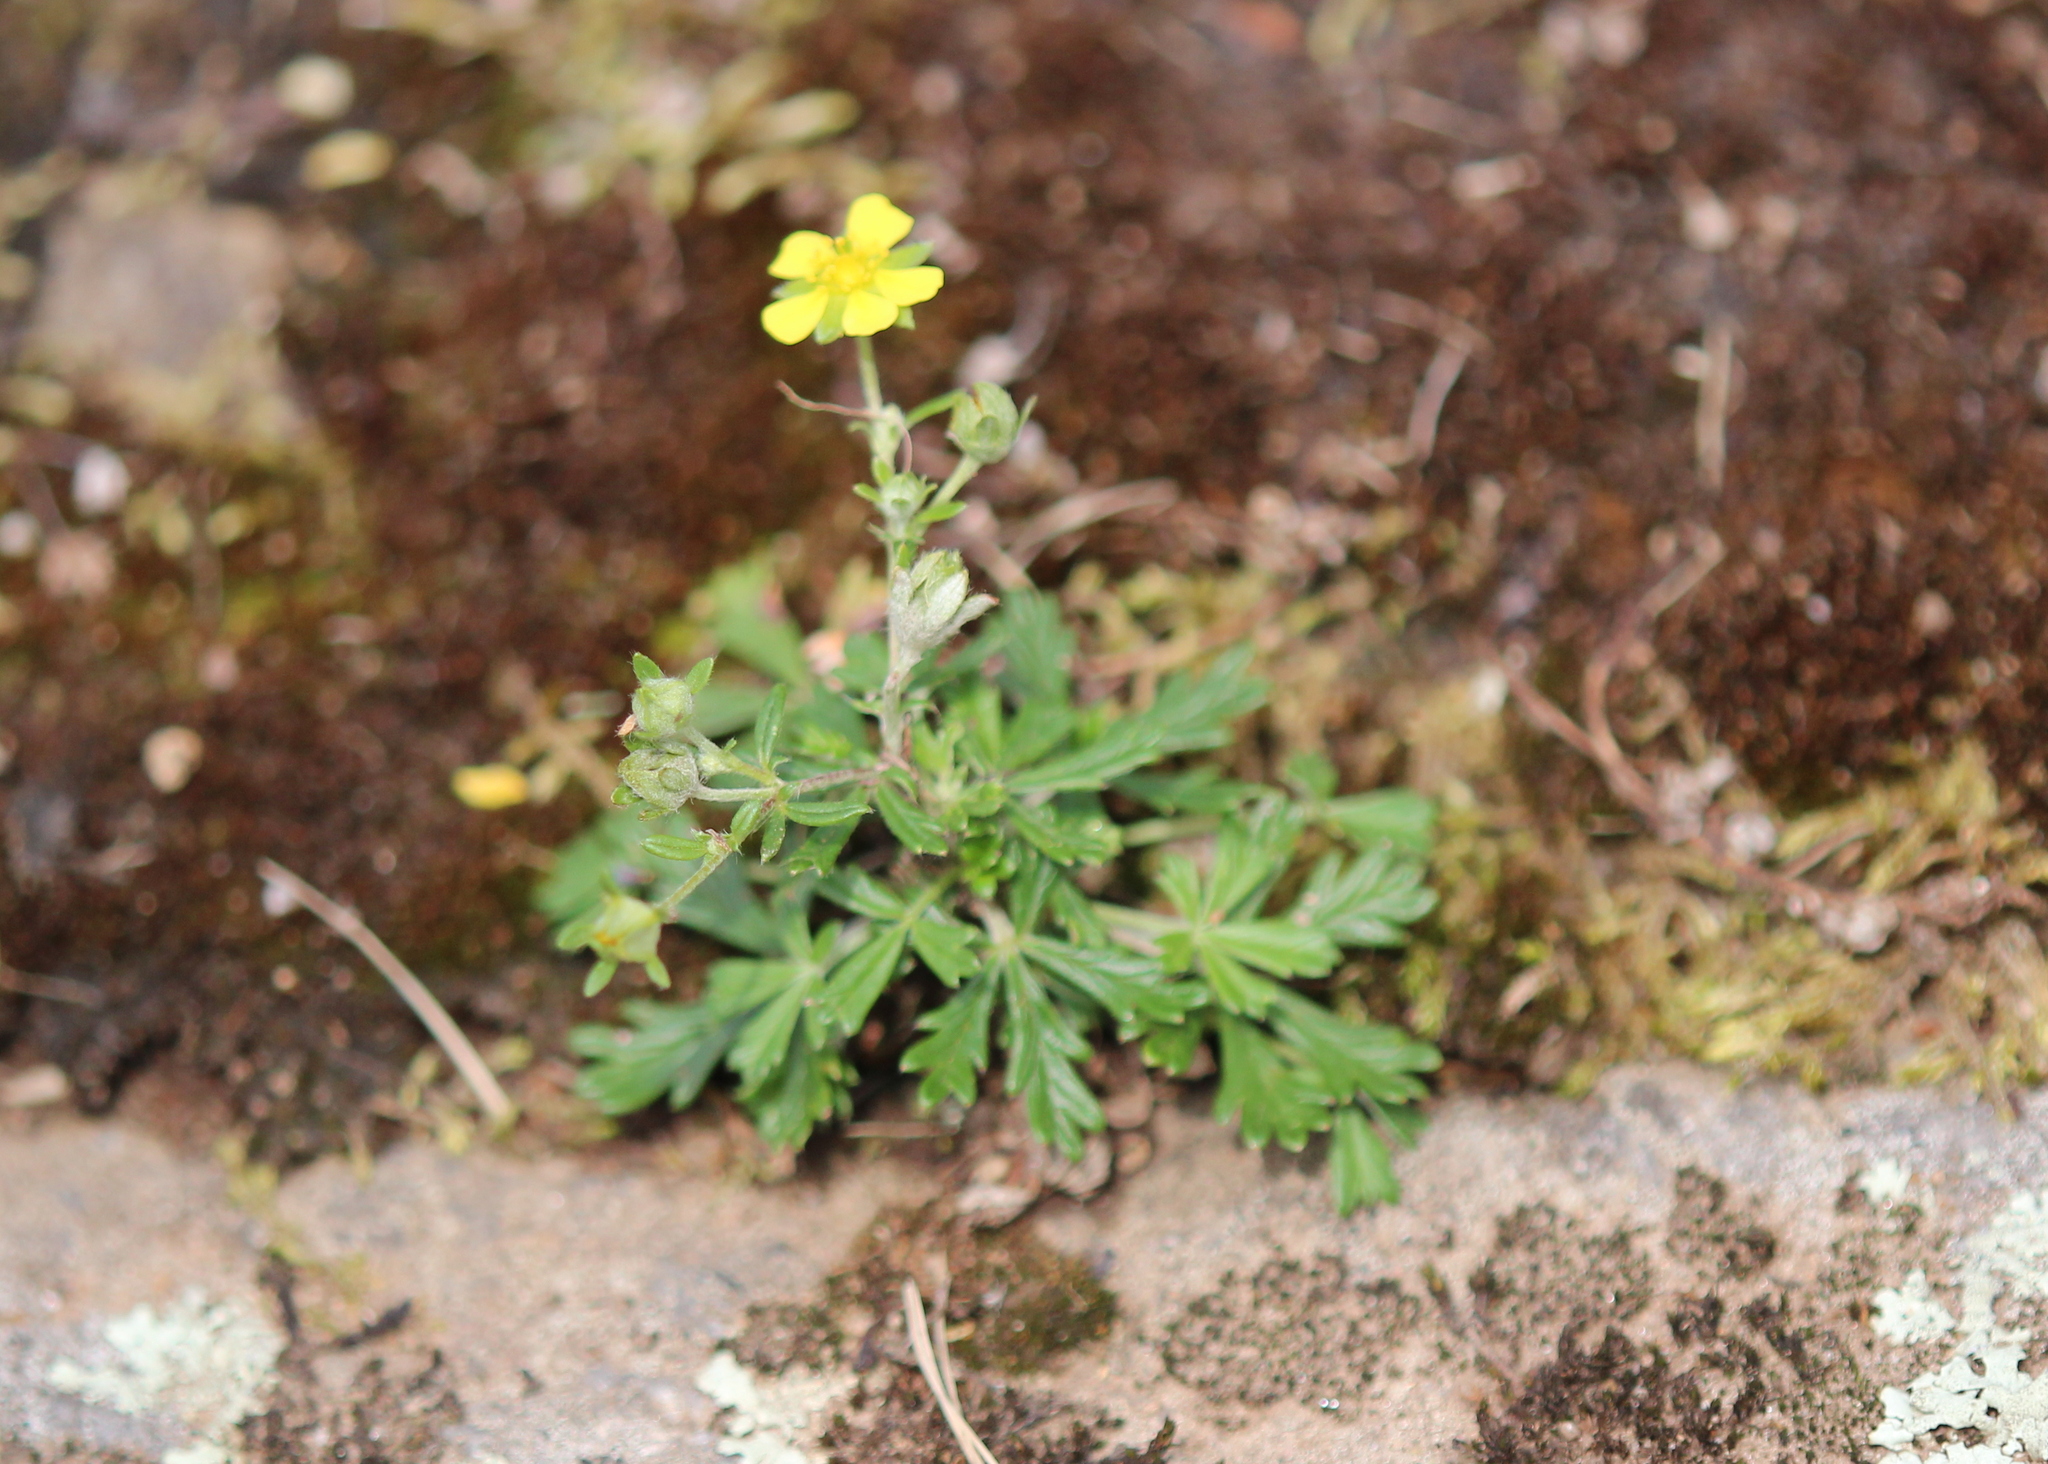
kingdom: Plantae
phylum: Tracheophyta
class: Magnoliopsida
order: Rosales
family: Rosaceae
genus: Potentilla
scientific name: Potentilla argentea
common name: Hoary cinquefoil
